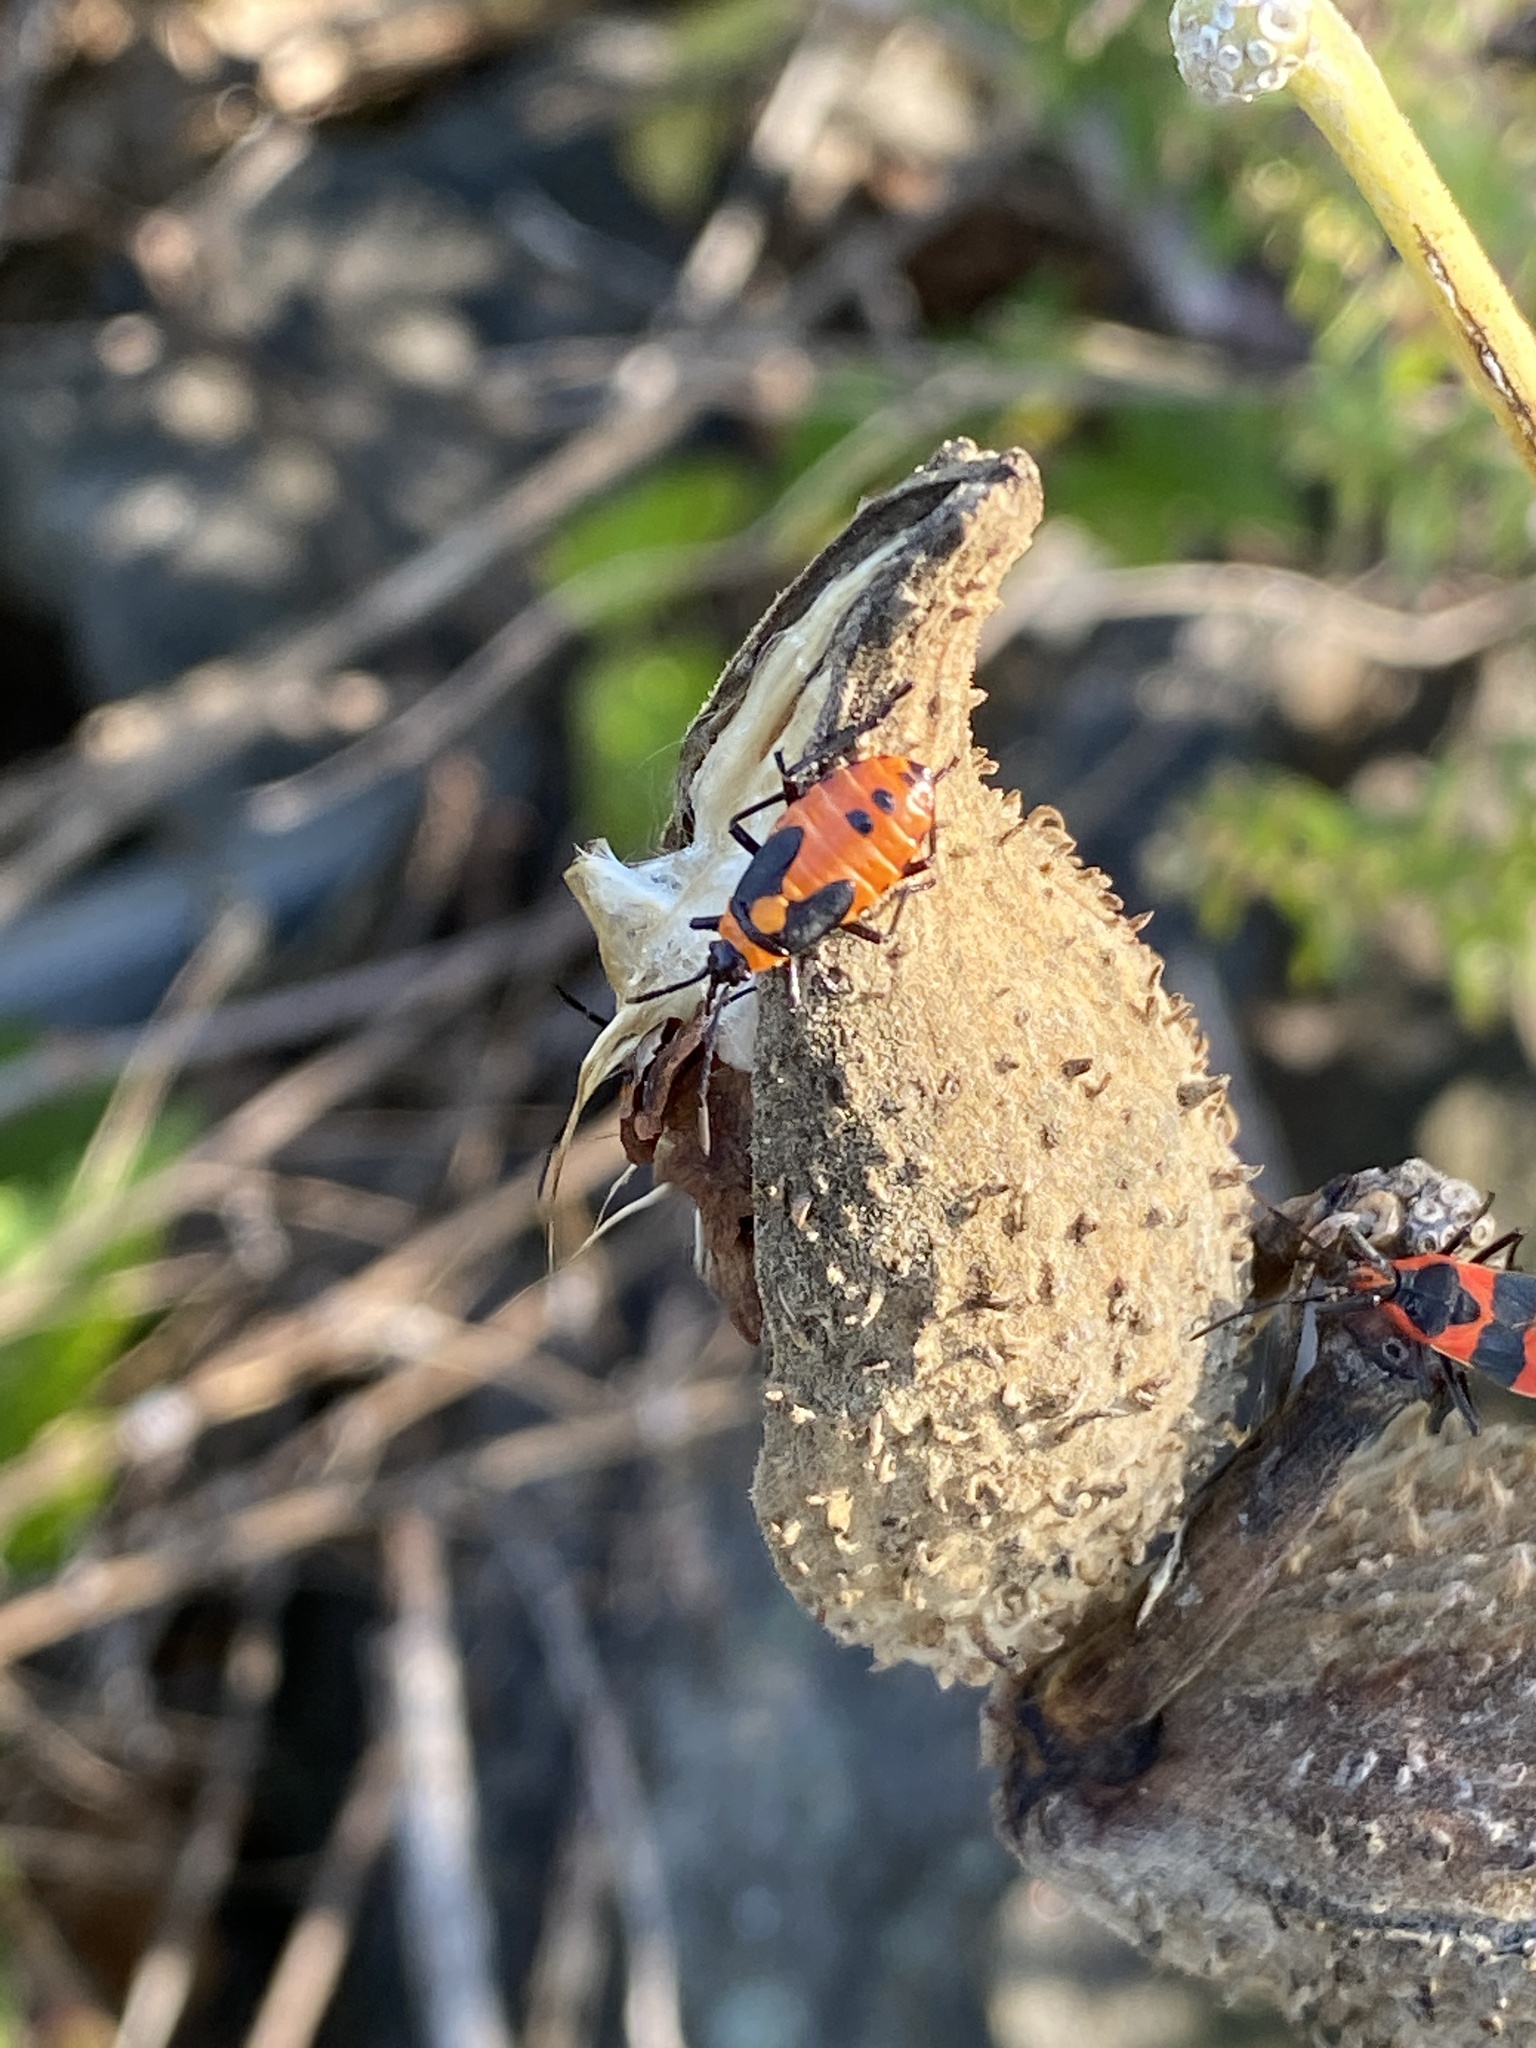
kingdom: Animalia
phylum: Arthropoda
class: Insecta
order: Hemiptera
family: Lygaeidae
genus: Oncopeltus
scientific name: Oncopeltus fasciatus
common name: Large milkweed bug
